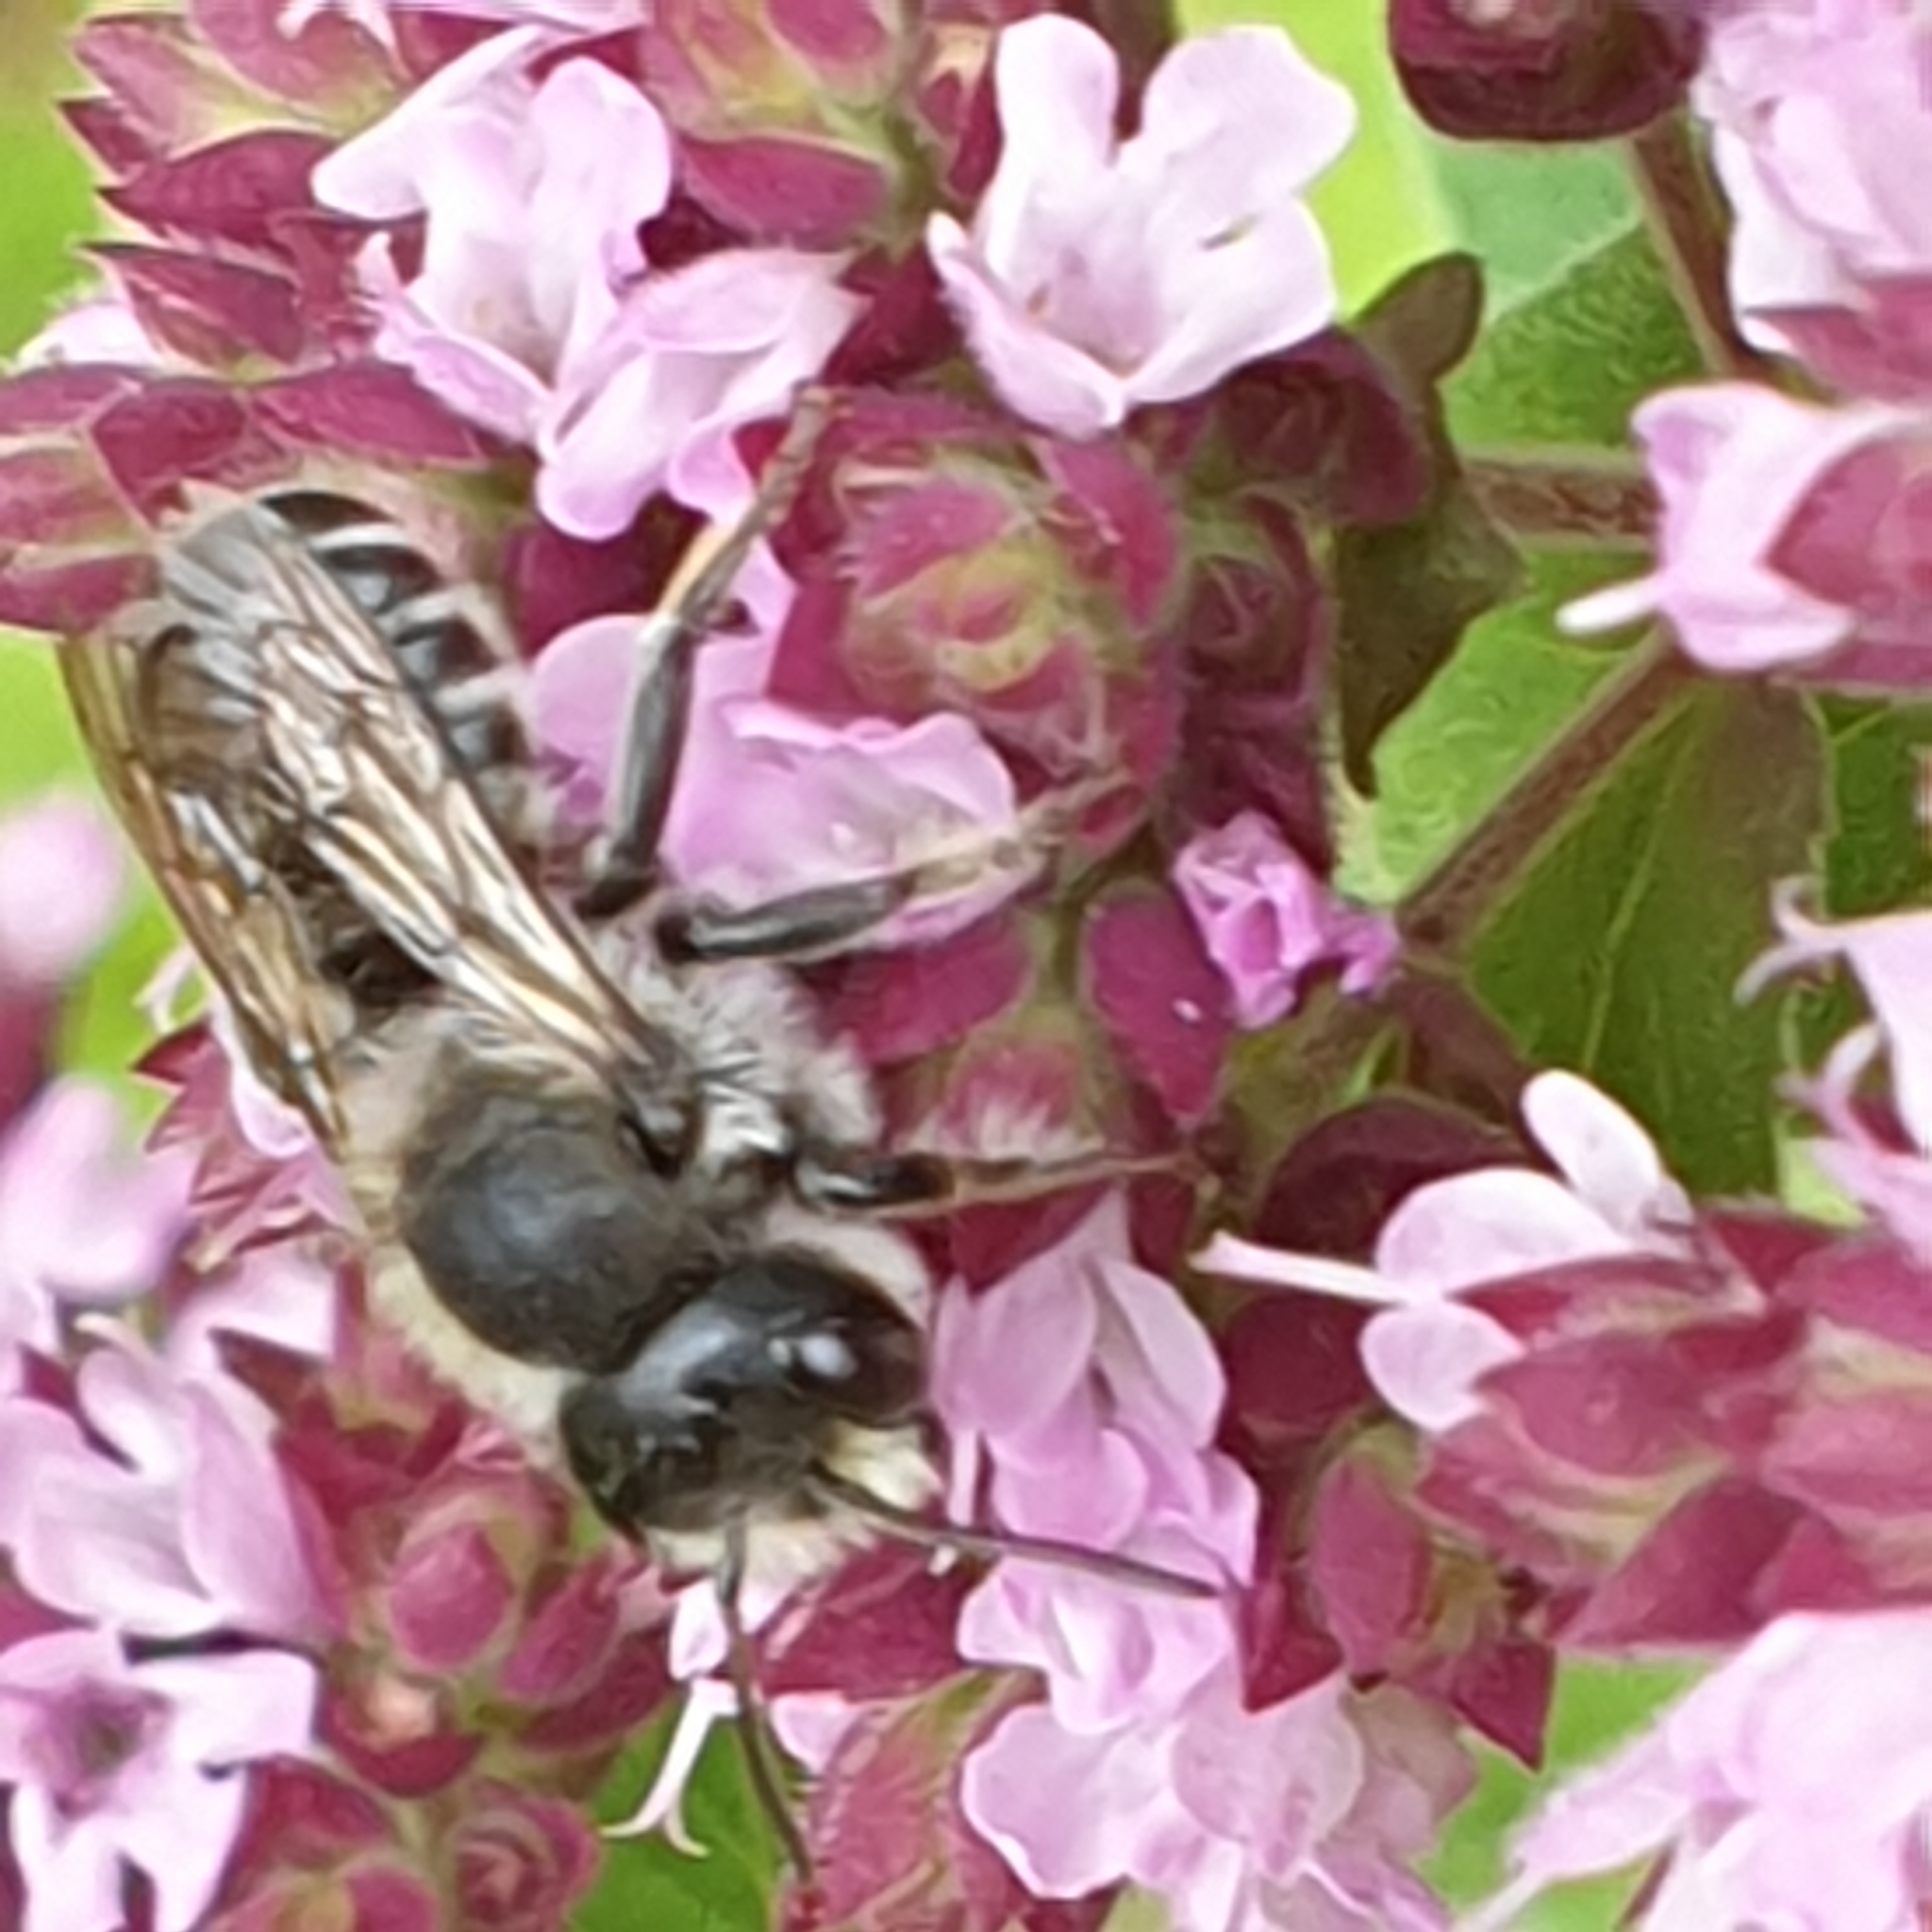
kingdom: Animalia
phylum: Arthropoda
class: Insecta
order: Hymenoptera
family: Megachilidae
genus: Megachile
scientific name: Megachile rotundata
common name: Alfalfa leafcutting bee
